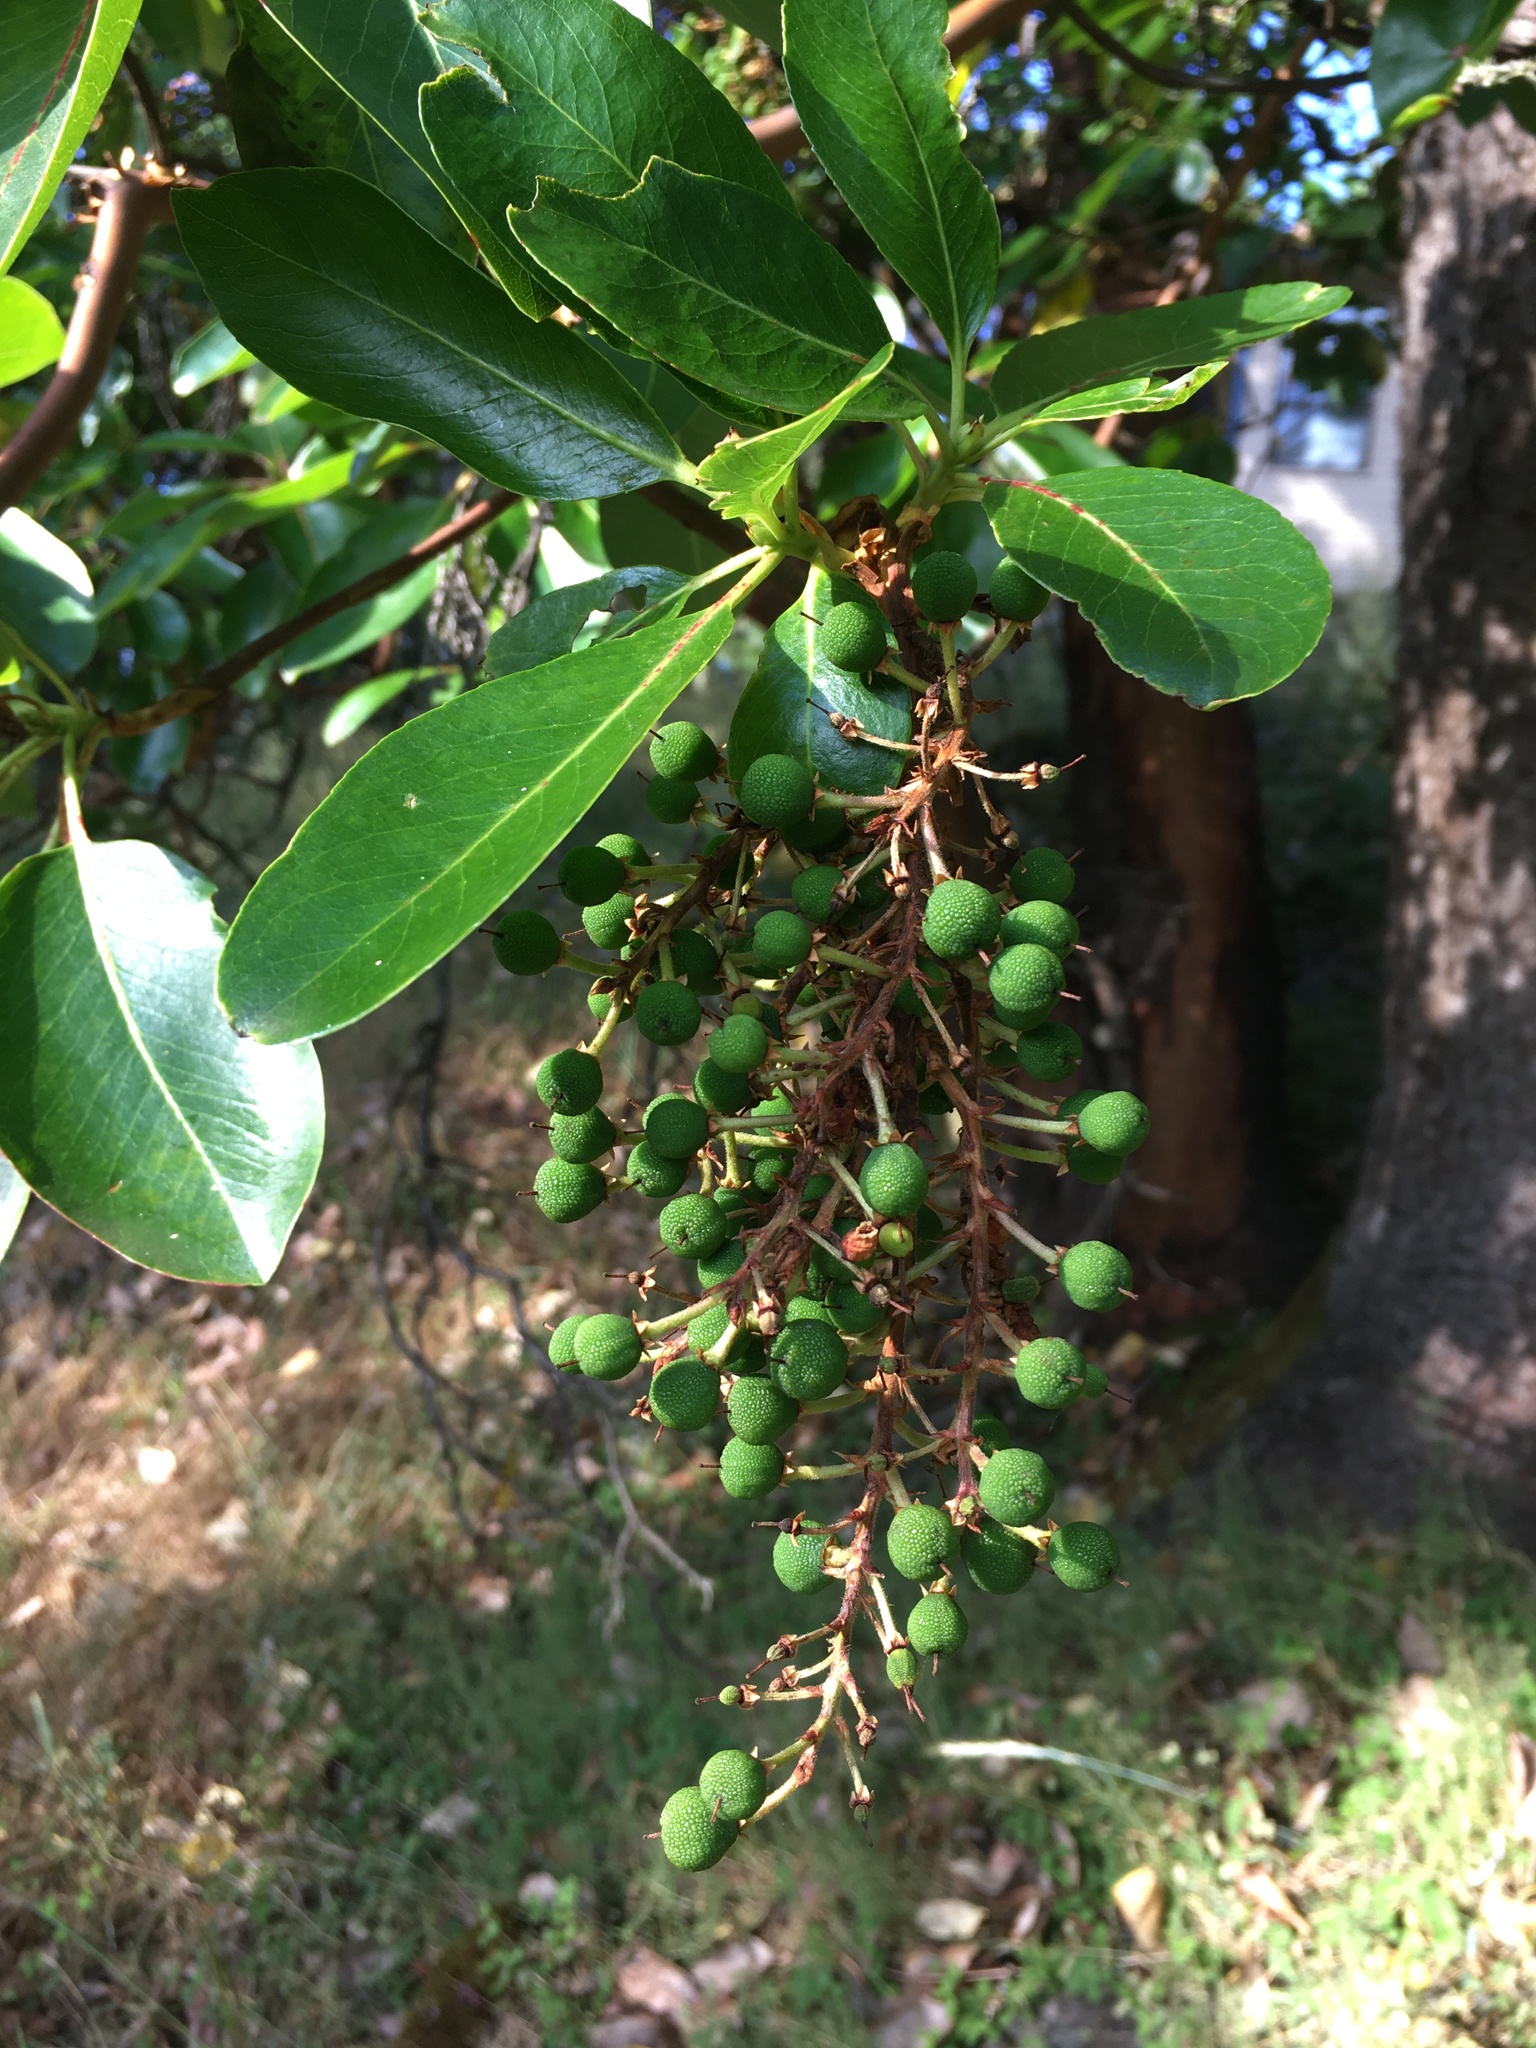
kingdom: Plantae
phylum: Tracheophyta
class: Magnoliopsida
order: Ericales
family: Ericaceae
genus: Arbutus
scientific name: Arbutus menziesii
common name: Pacific madrone
